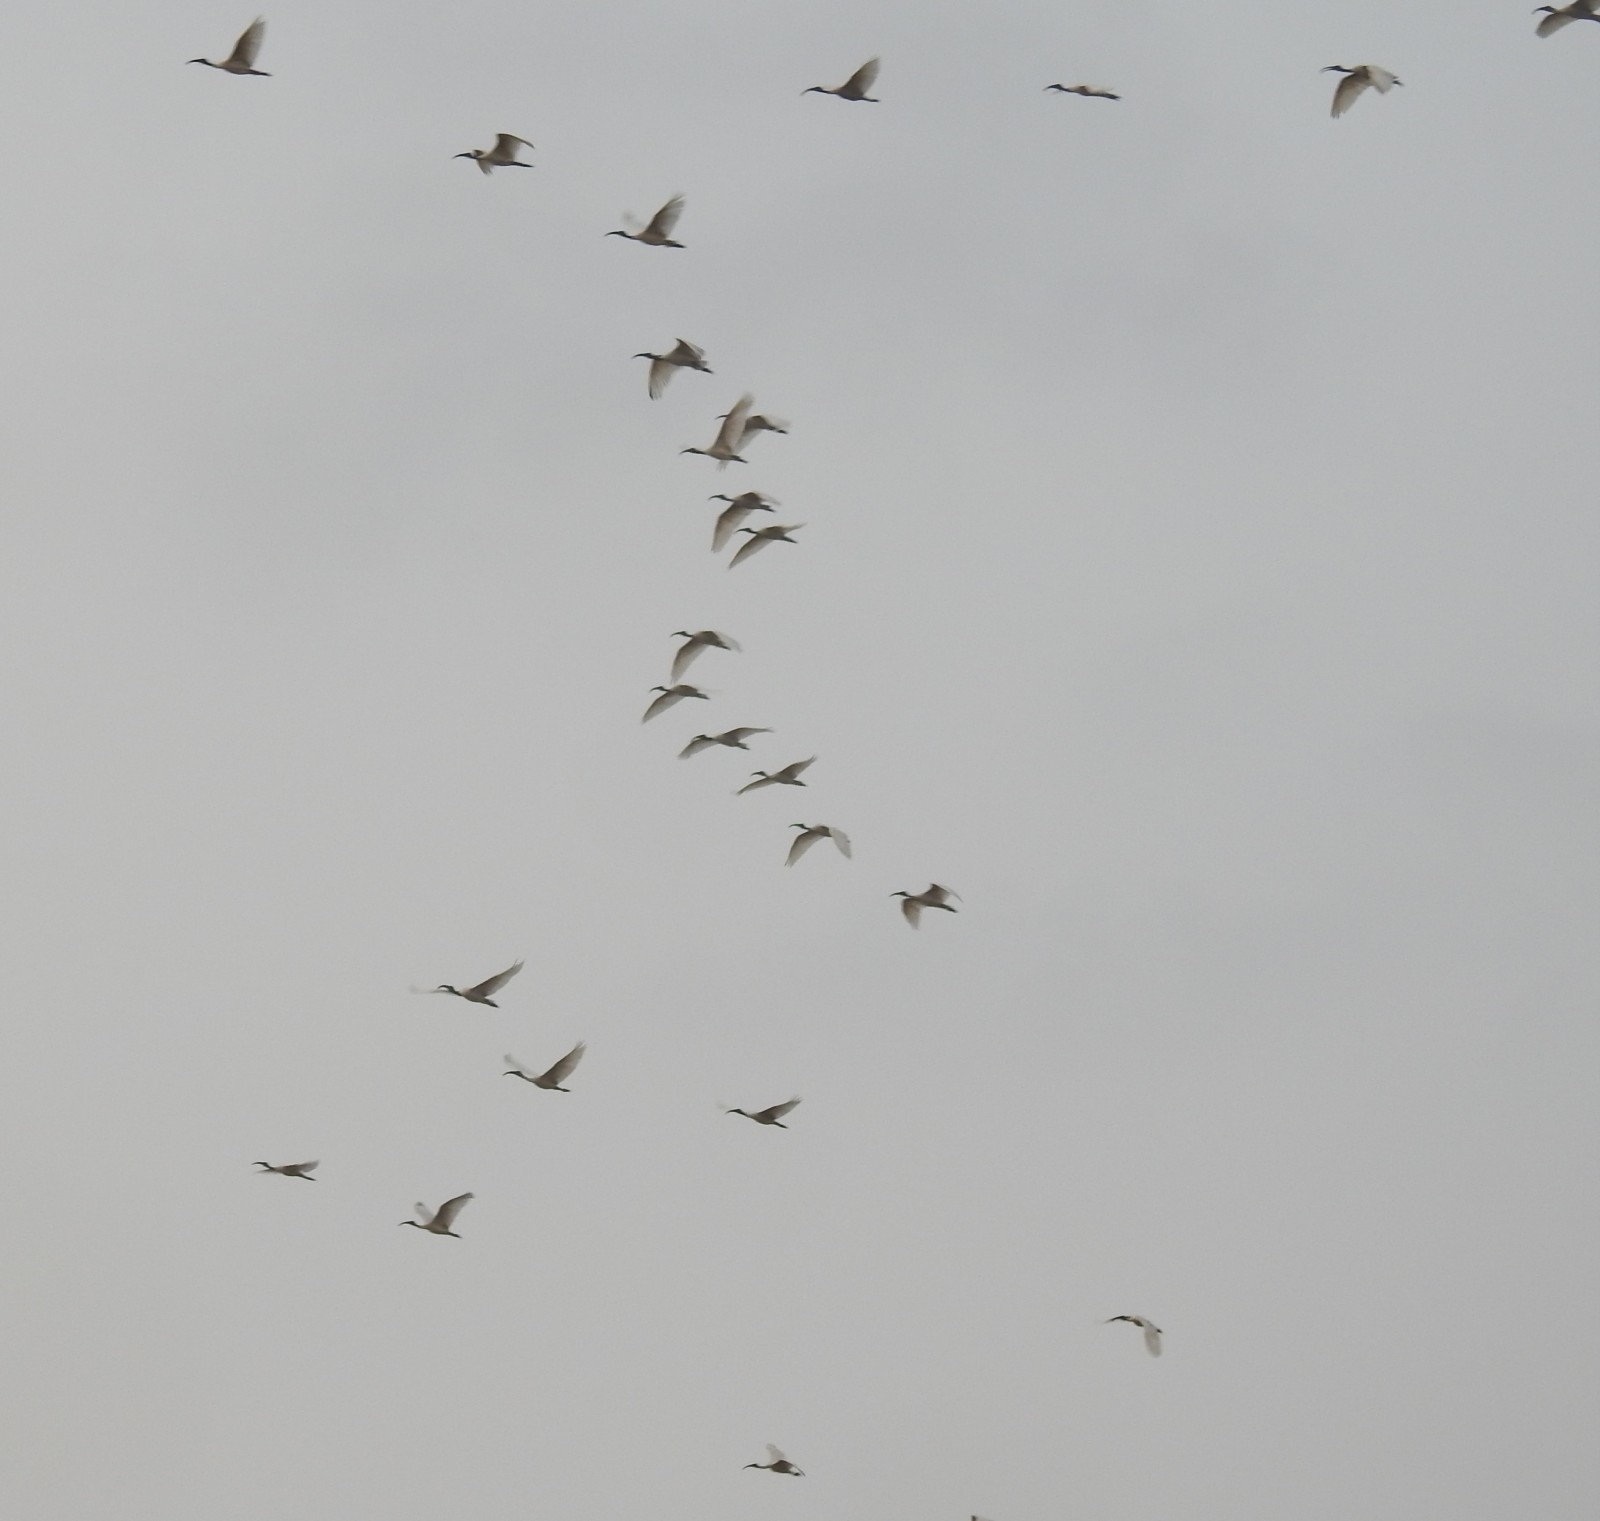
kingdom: Animalia
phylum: Chordata
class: Aves
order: Pelecaniformes
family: Threskiornithidae
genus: Threskiornis
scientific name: Threskiornis melanocephalus
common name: Black-headed ibis
